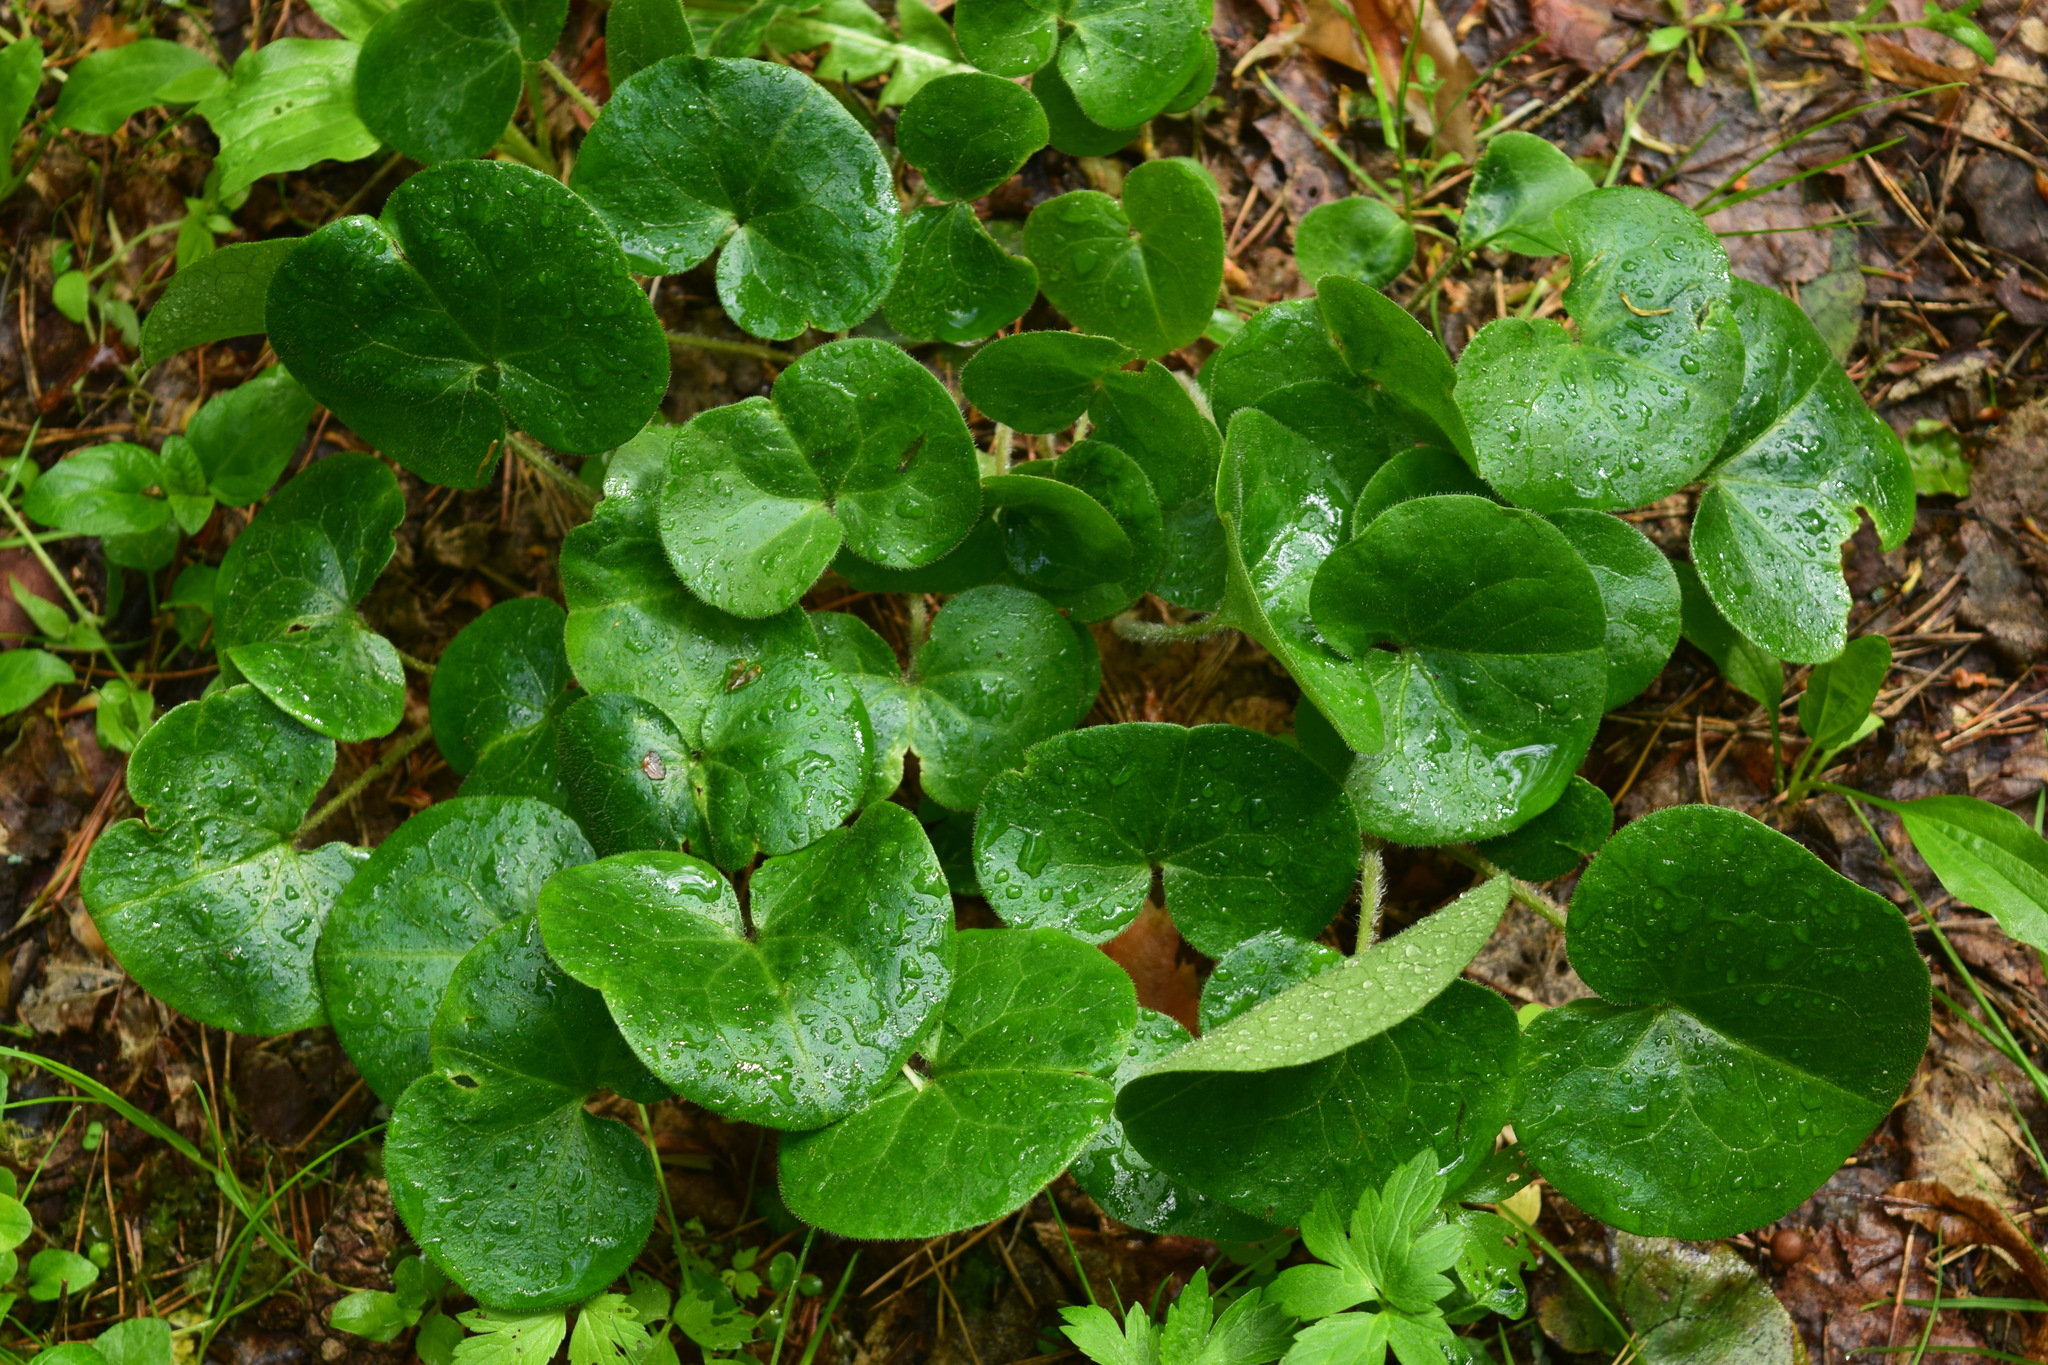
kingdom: Plantae
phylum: Tracheophyta
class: Magnoliopsida
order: Piperales
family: Aristolochiaceae
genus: Asarum
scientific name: Asarum europaeum
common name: Asarabacca
